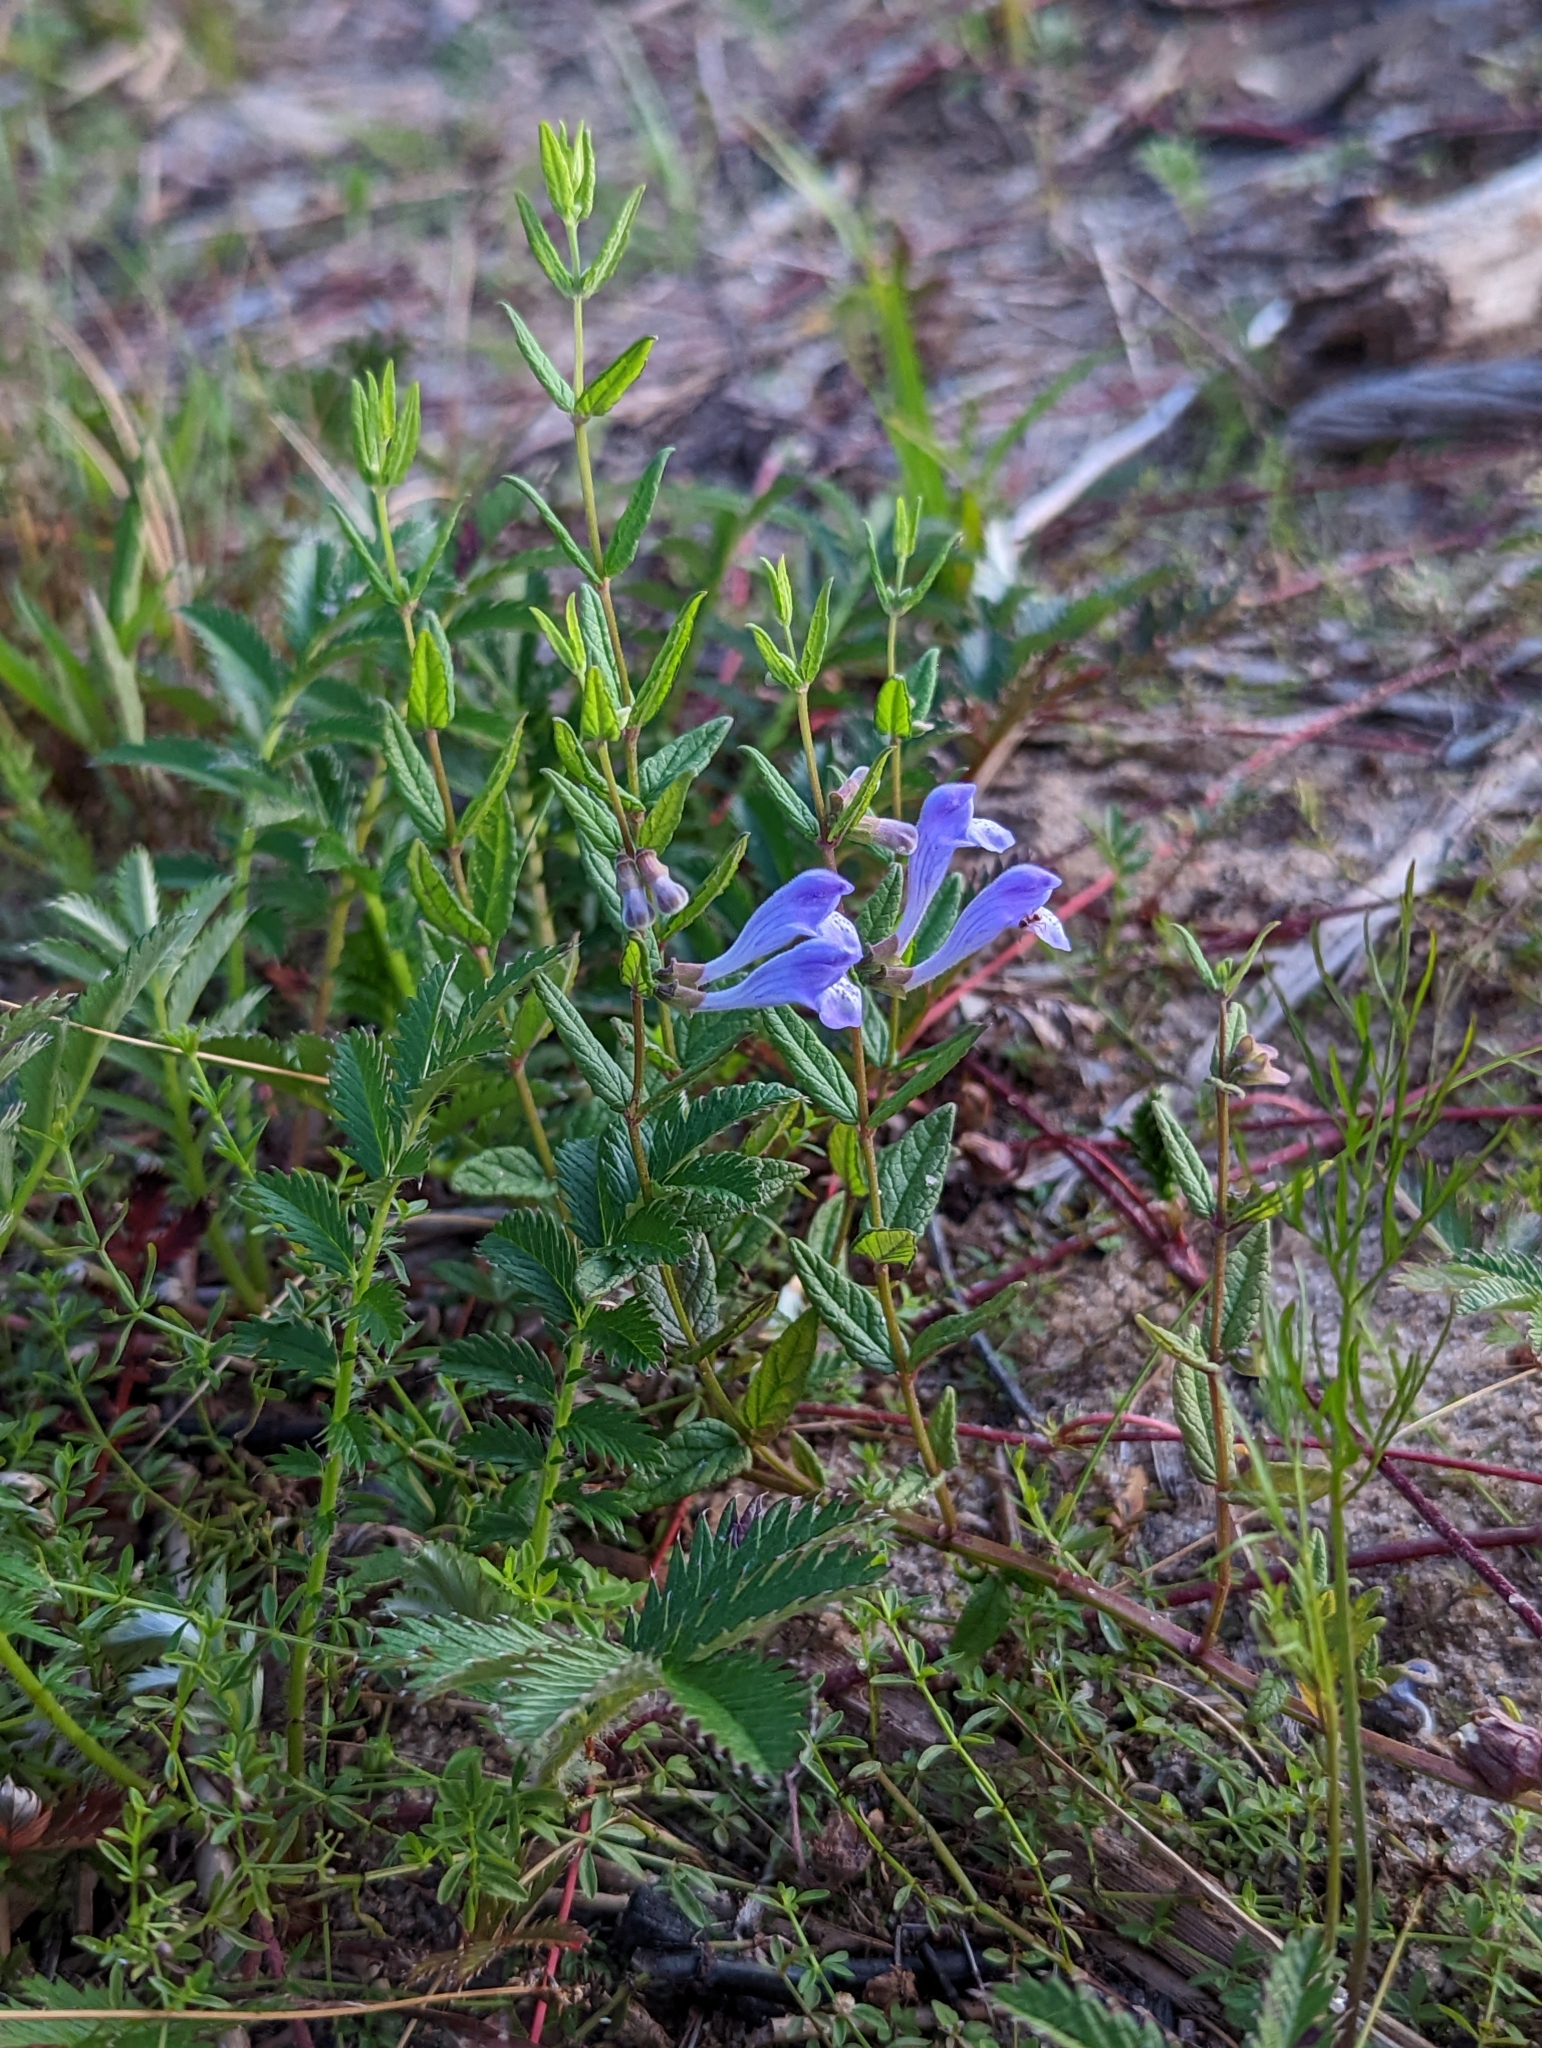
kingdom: Plantae
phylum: Tracheophyta
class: Magnoliopsida
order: Lamiales
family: Lamiaceae
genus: Scutellaria
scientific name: Scutellaria galericulata
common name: Skullcap
